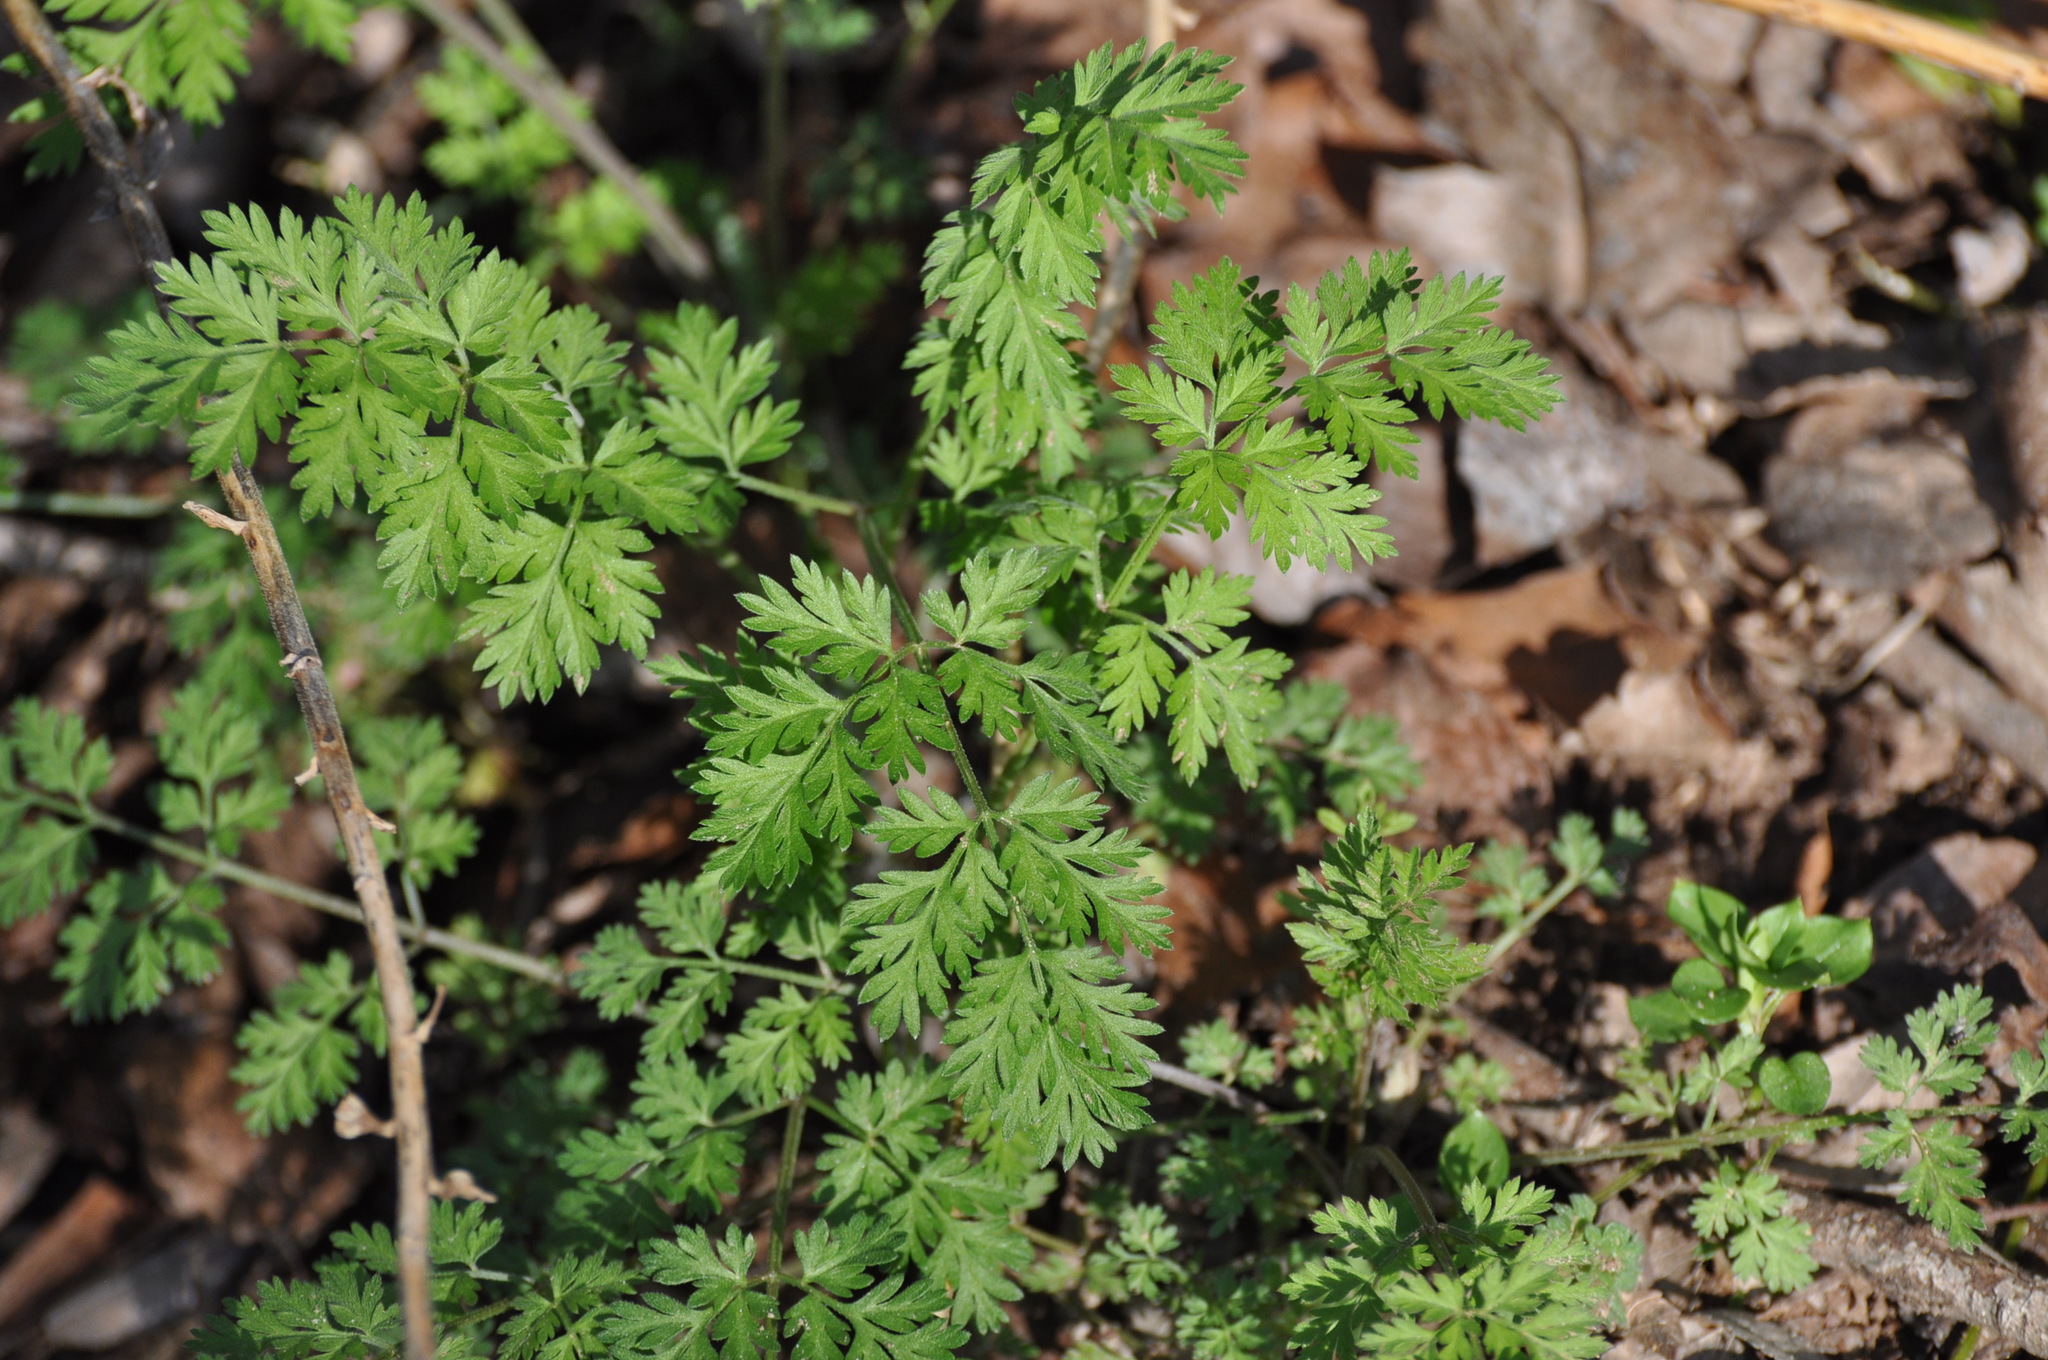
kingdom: Plantae
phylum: Tracheophyta
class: Magnoliopsida
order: Apiales
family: Apiaceae
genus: Torilis
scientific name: Torilis arvensis
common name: Spreading hedge-parsley
